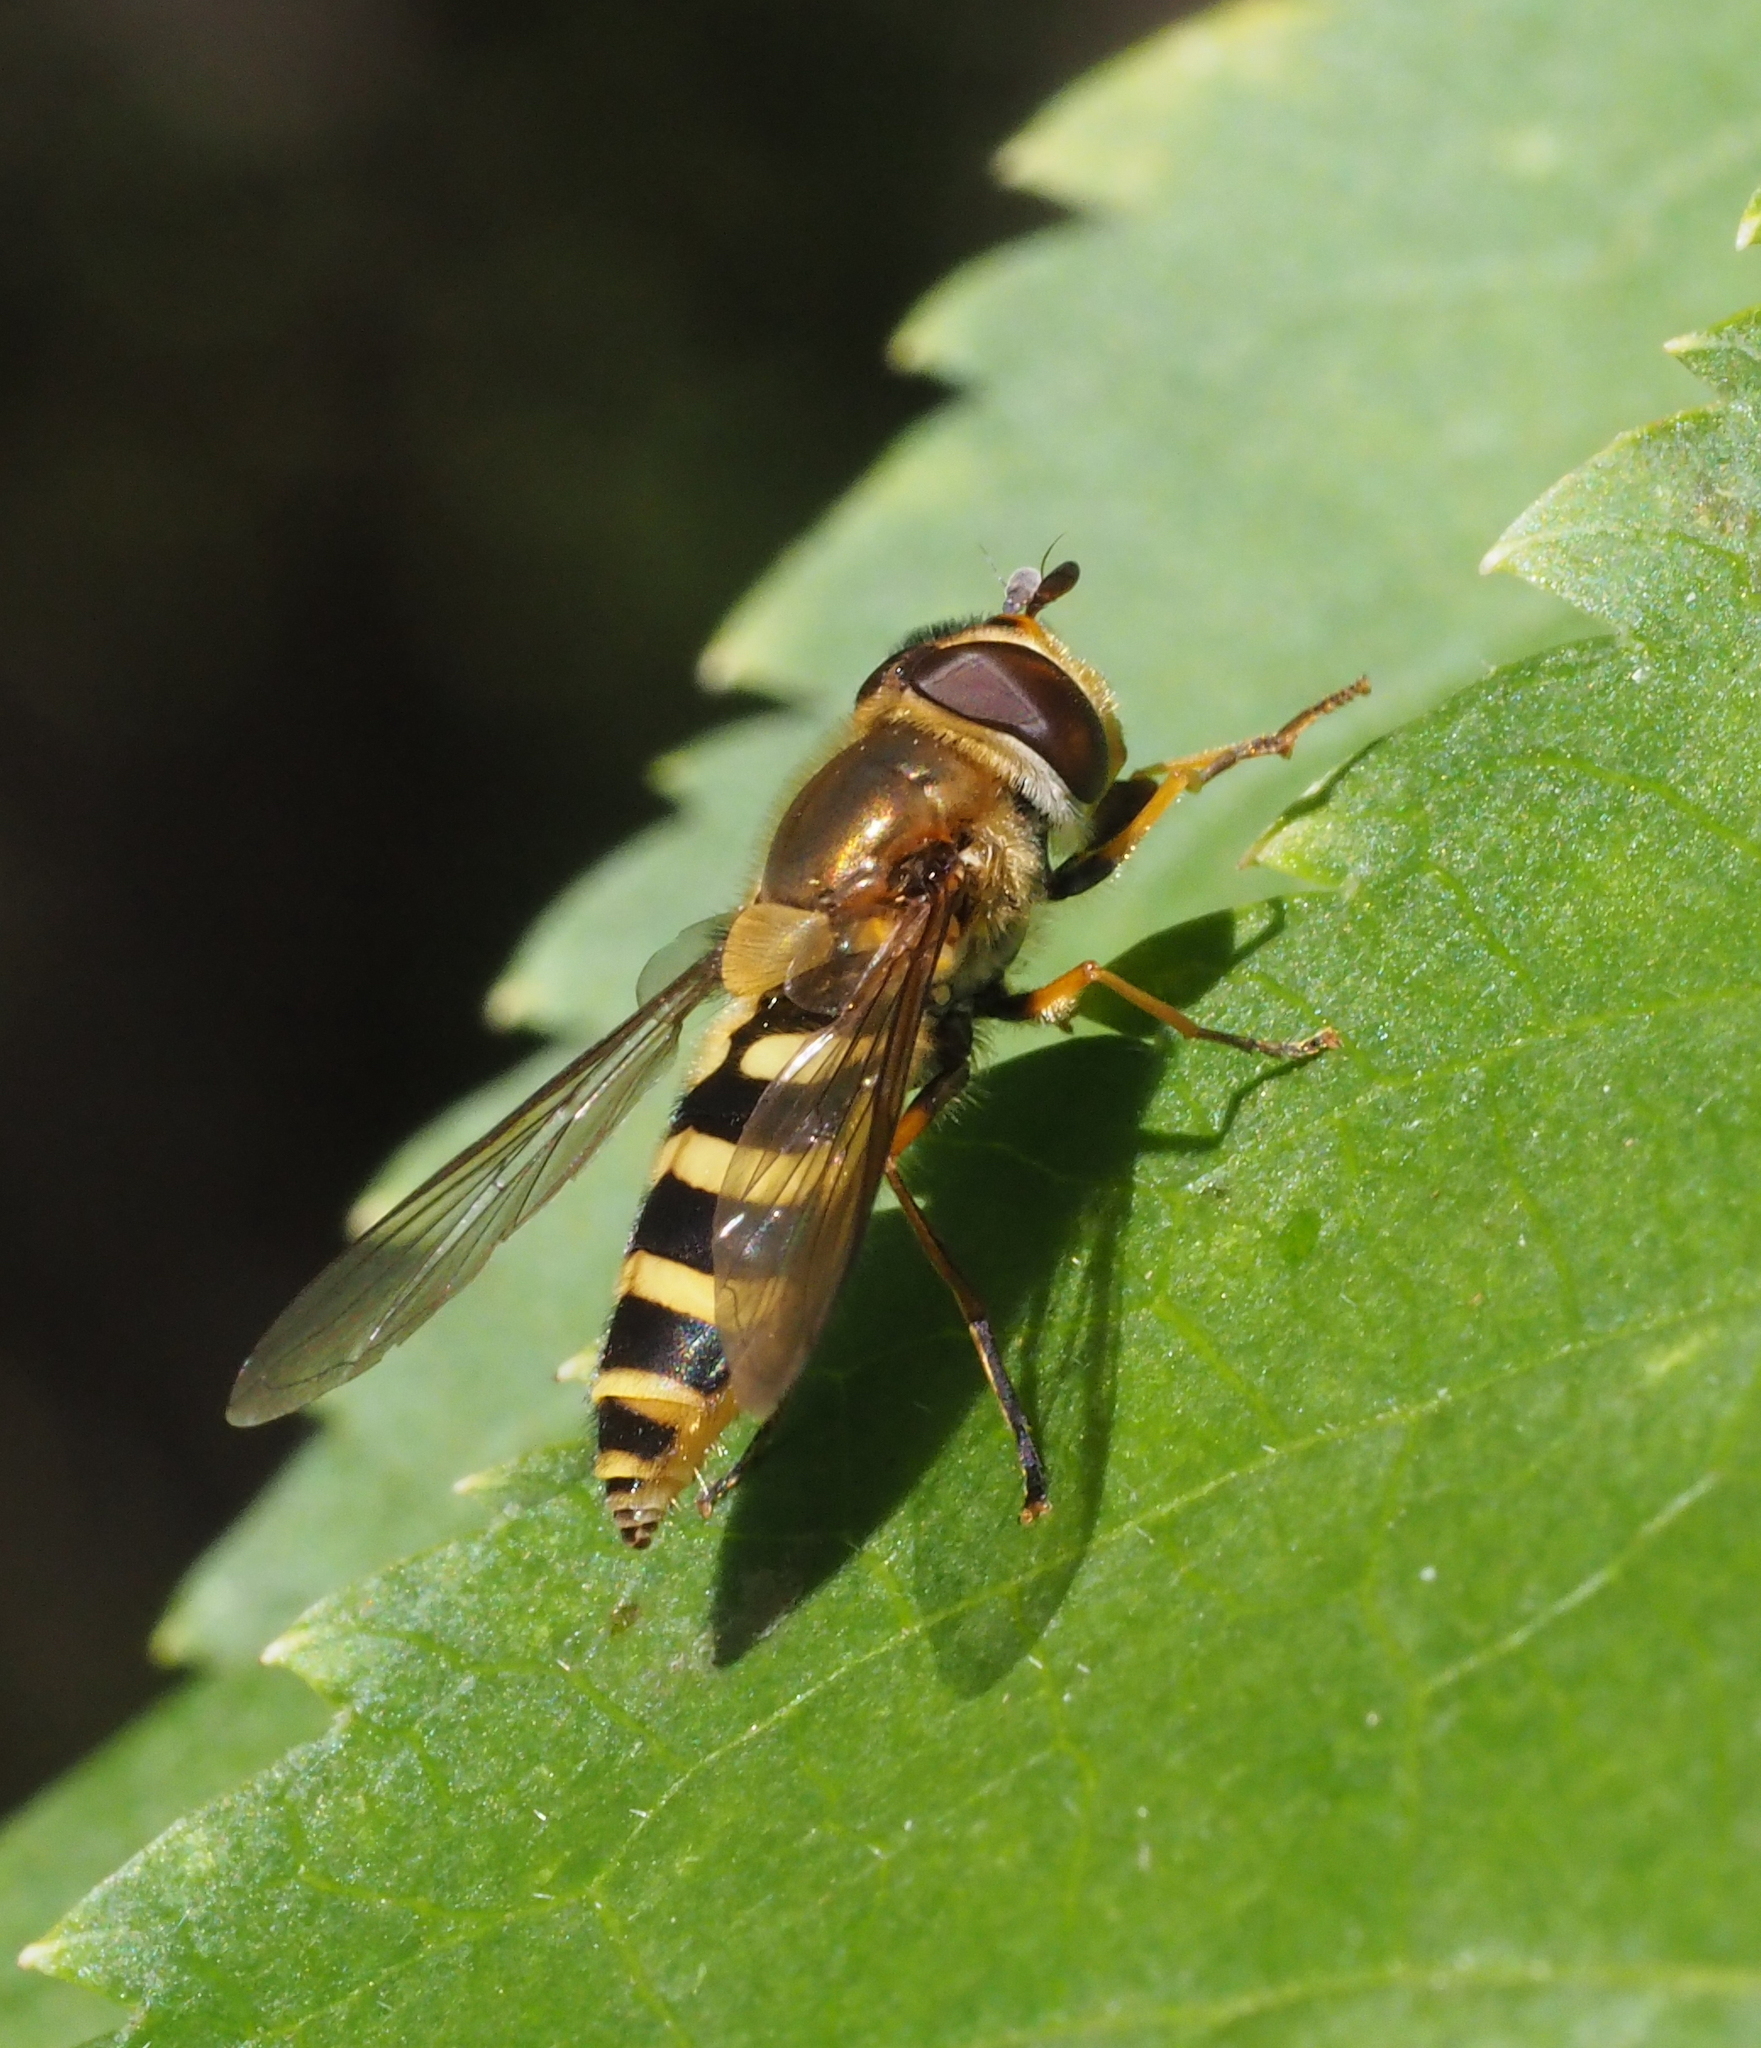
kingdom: Animalia
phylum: Arthropoda
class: Insecta
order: Diptera
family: Syrphidae
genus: Syrphus
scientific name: Syrphus
